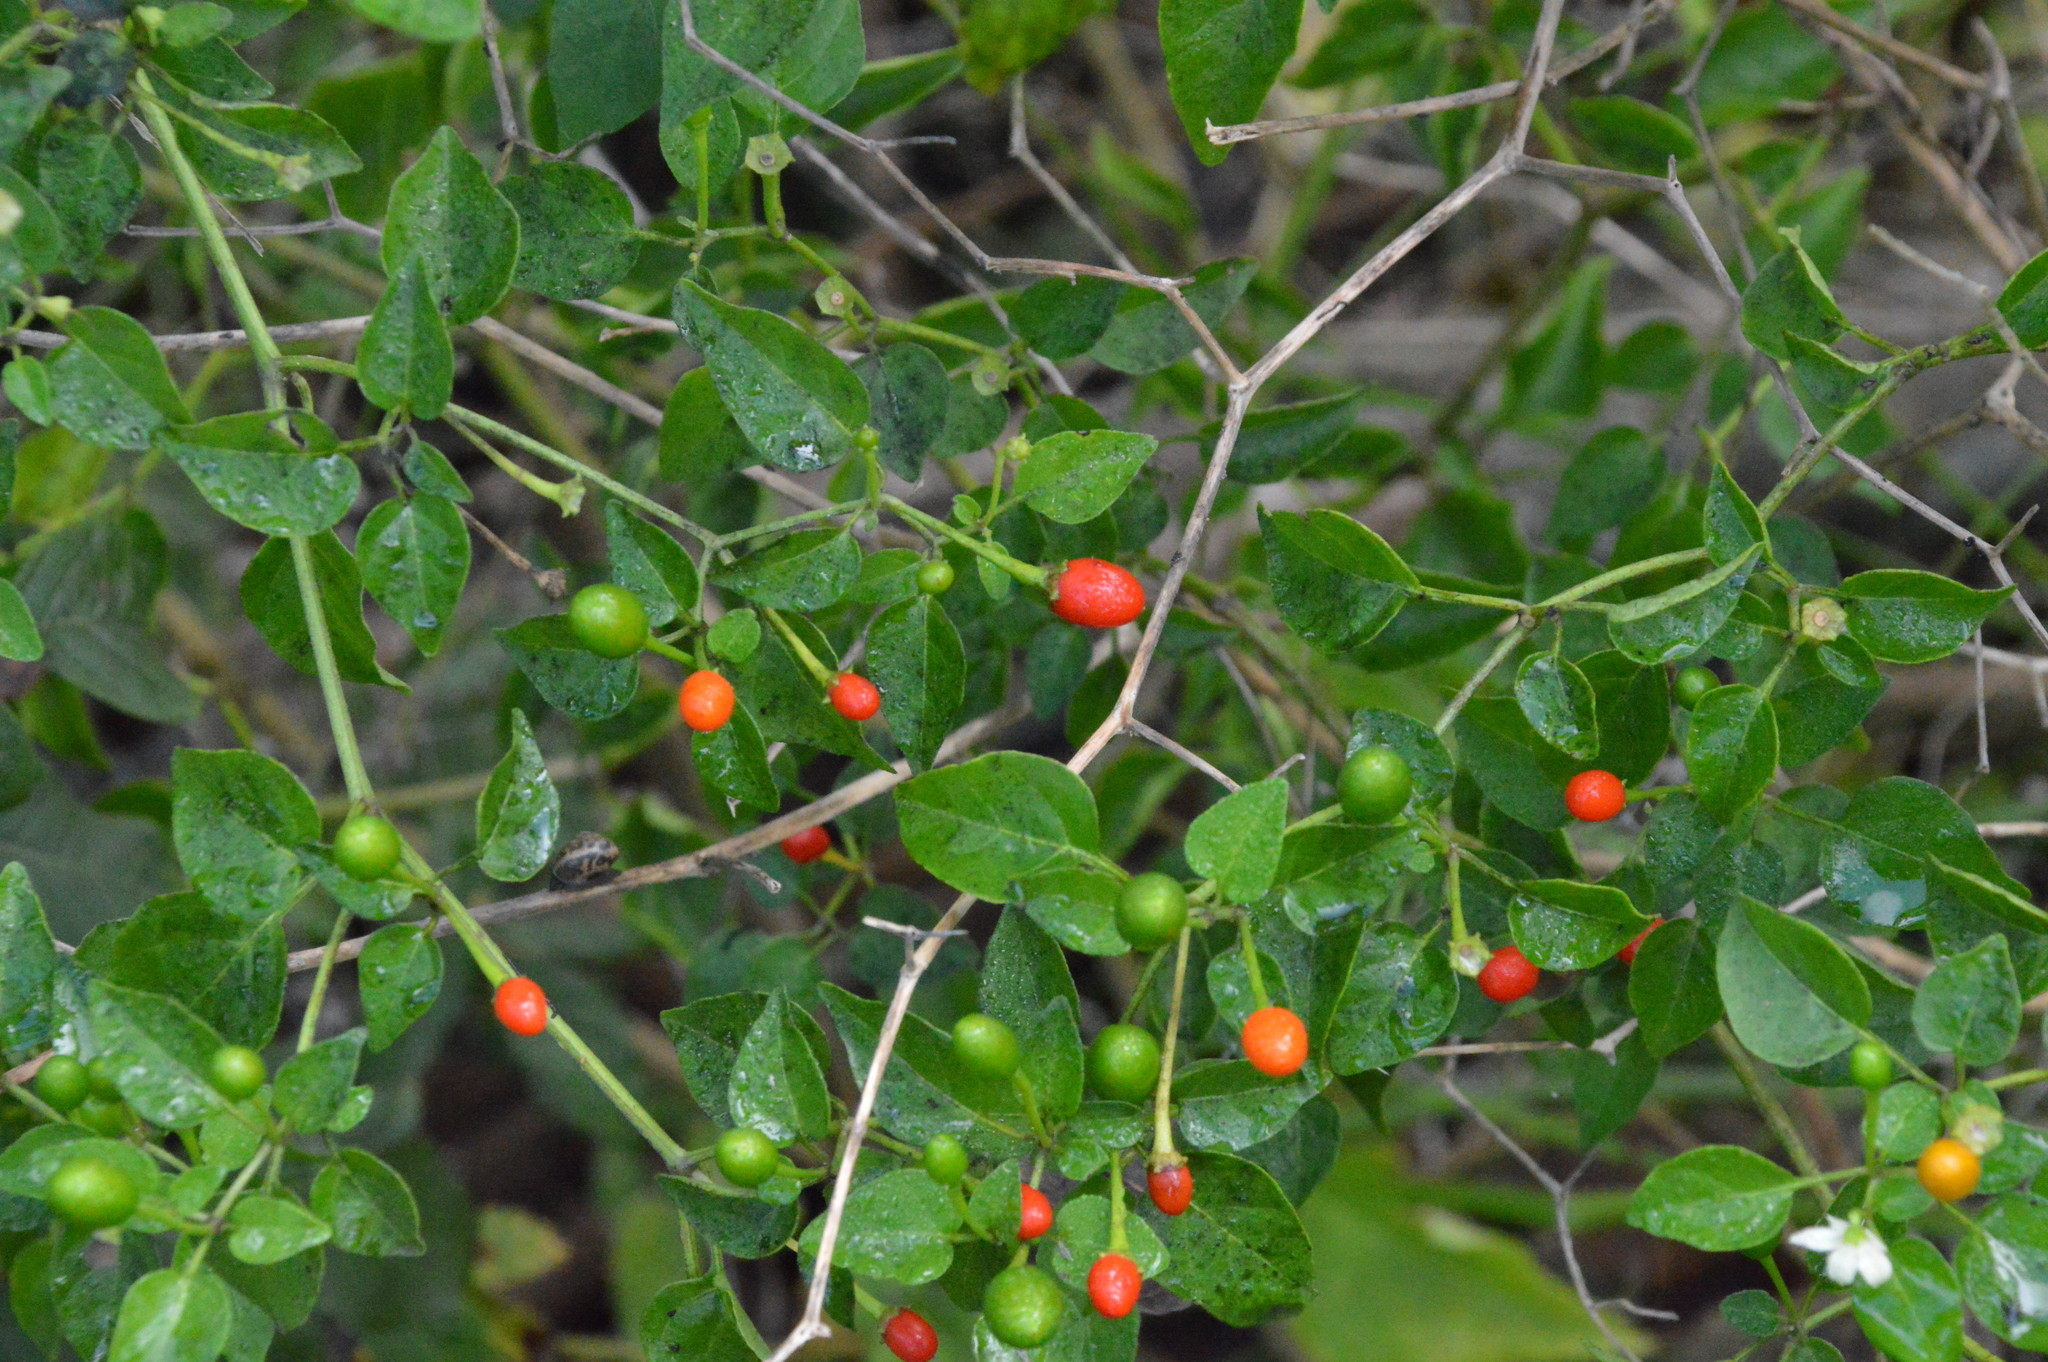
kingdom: Plantae
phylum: Tracheophyta
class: Magnoliopsida
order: Solanales
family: Solanaceae
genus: Capsicum
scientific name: Capsicum annuum
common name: Sweet pepper
